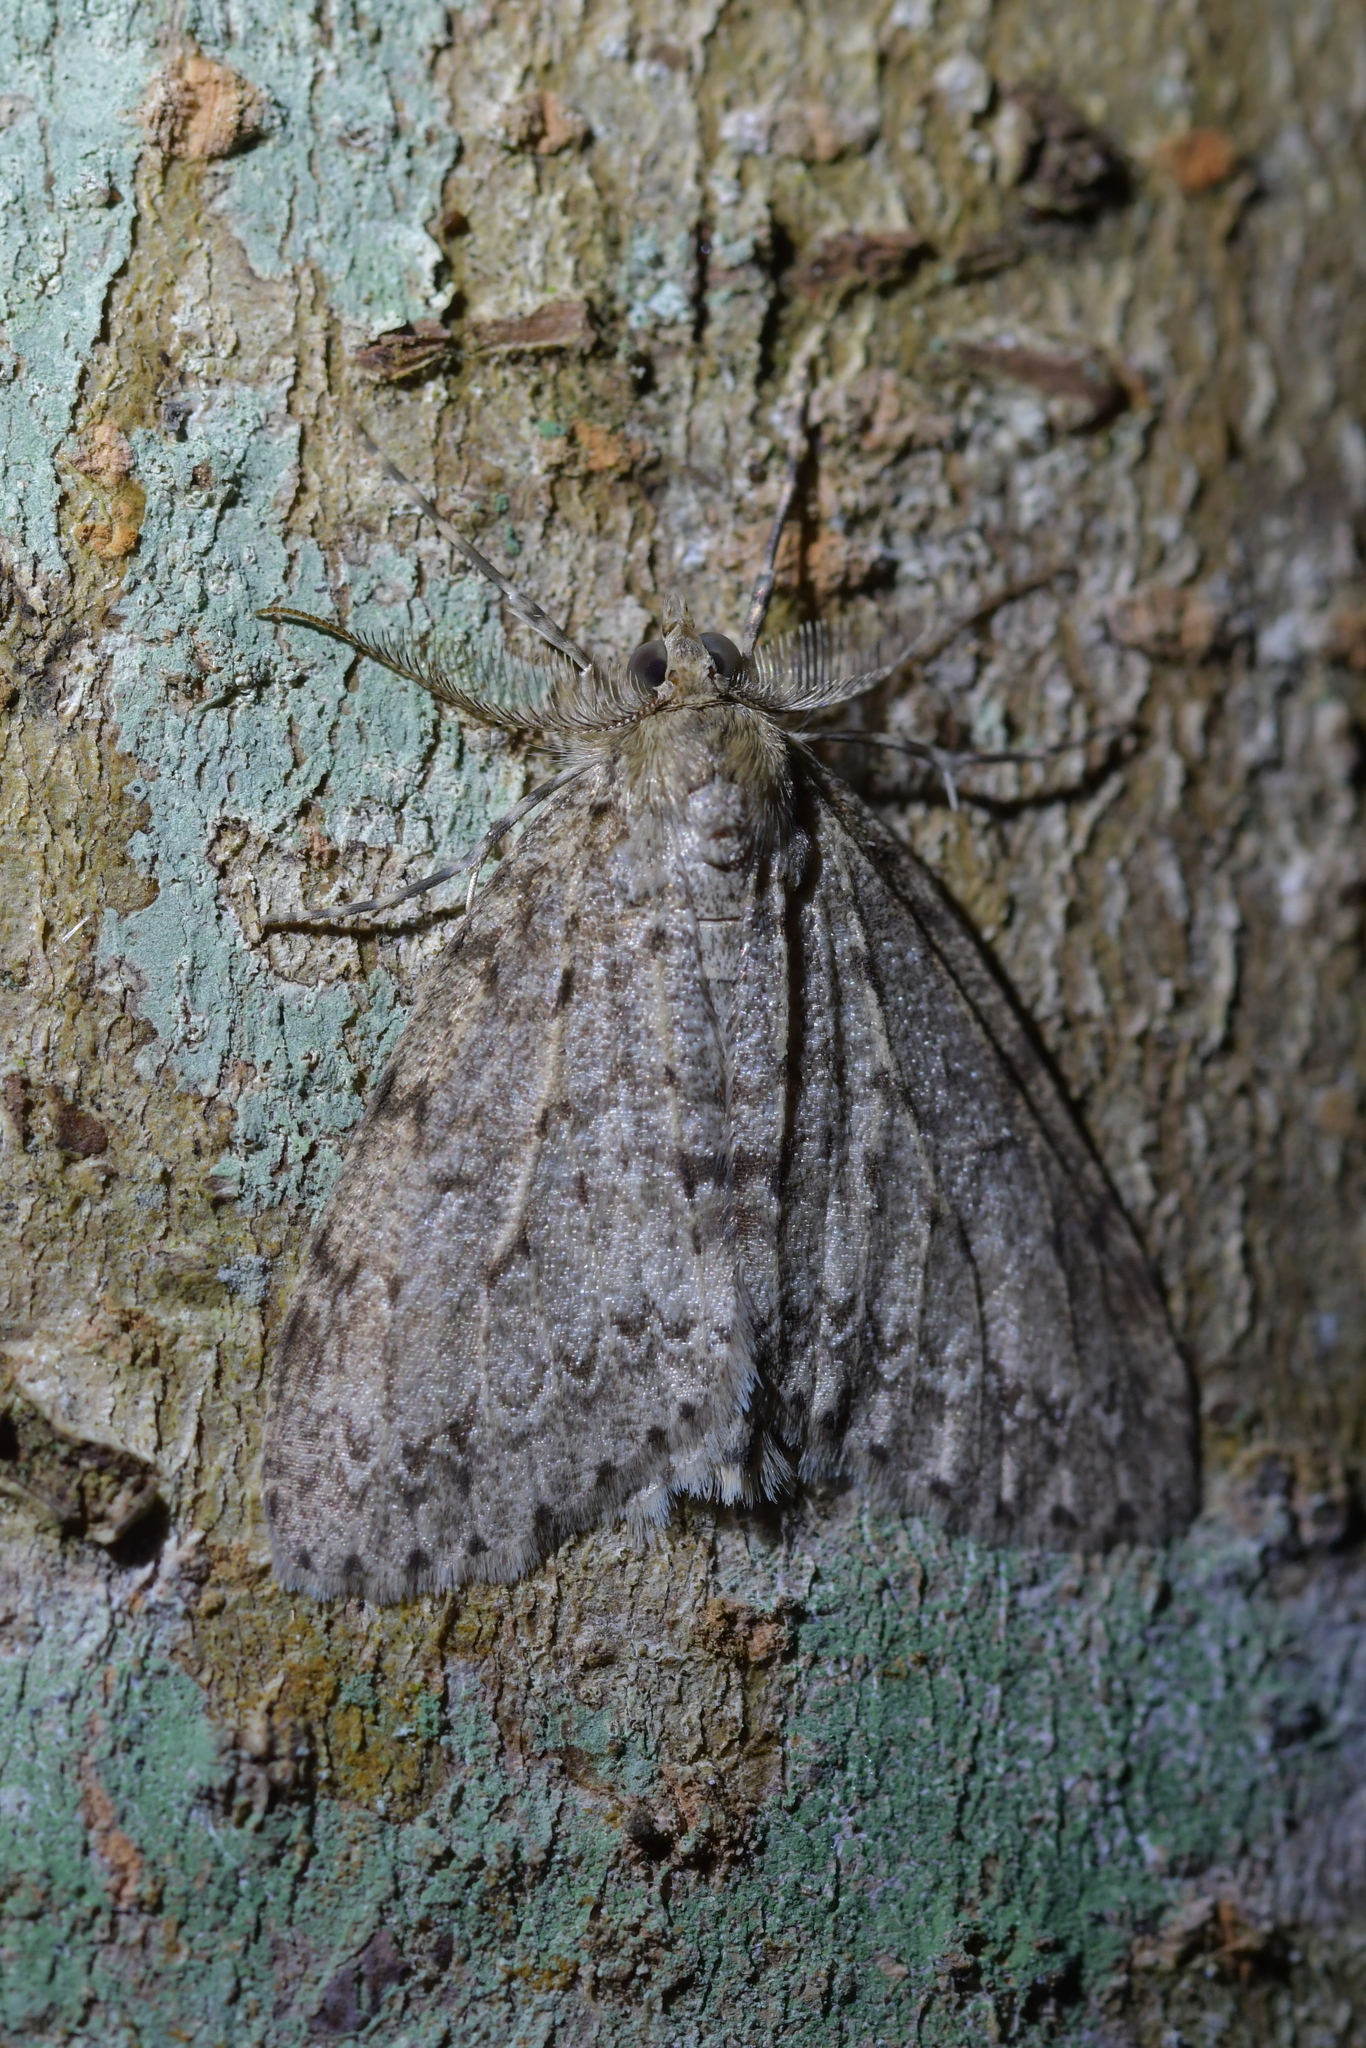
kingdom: Animalia
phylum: Arthropoda
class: Insecta
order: Lepidoptera
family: Geometridae
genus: Pseudocoremia
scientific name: Pseudocoremia fenerata
